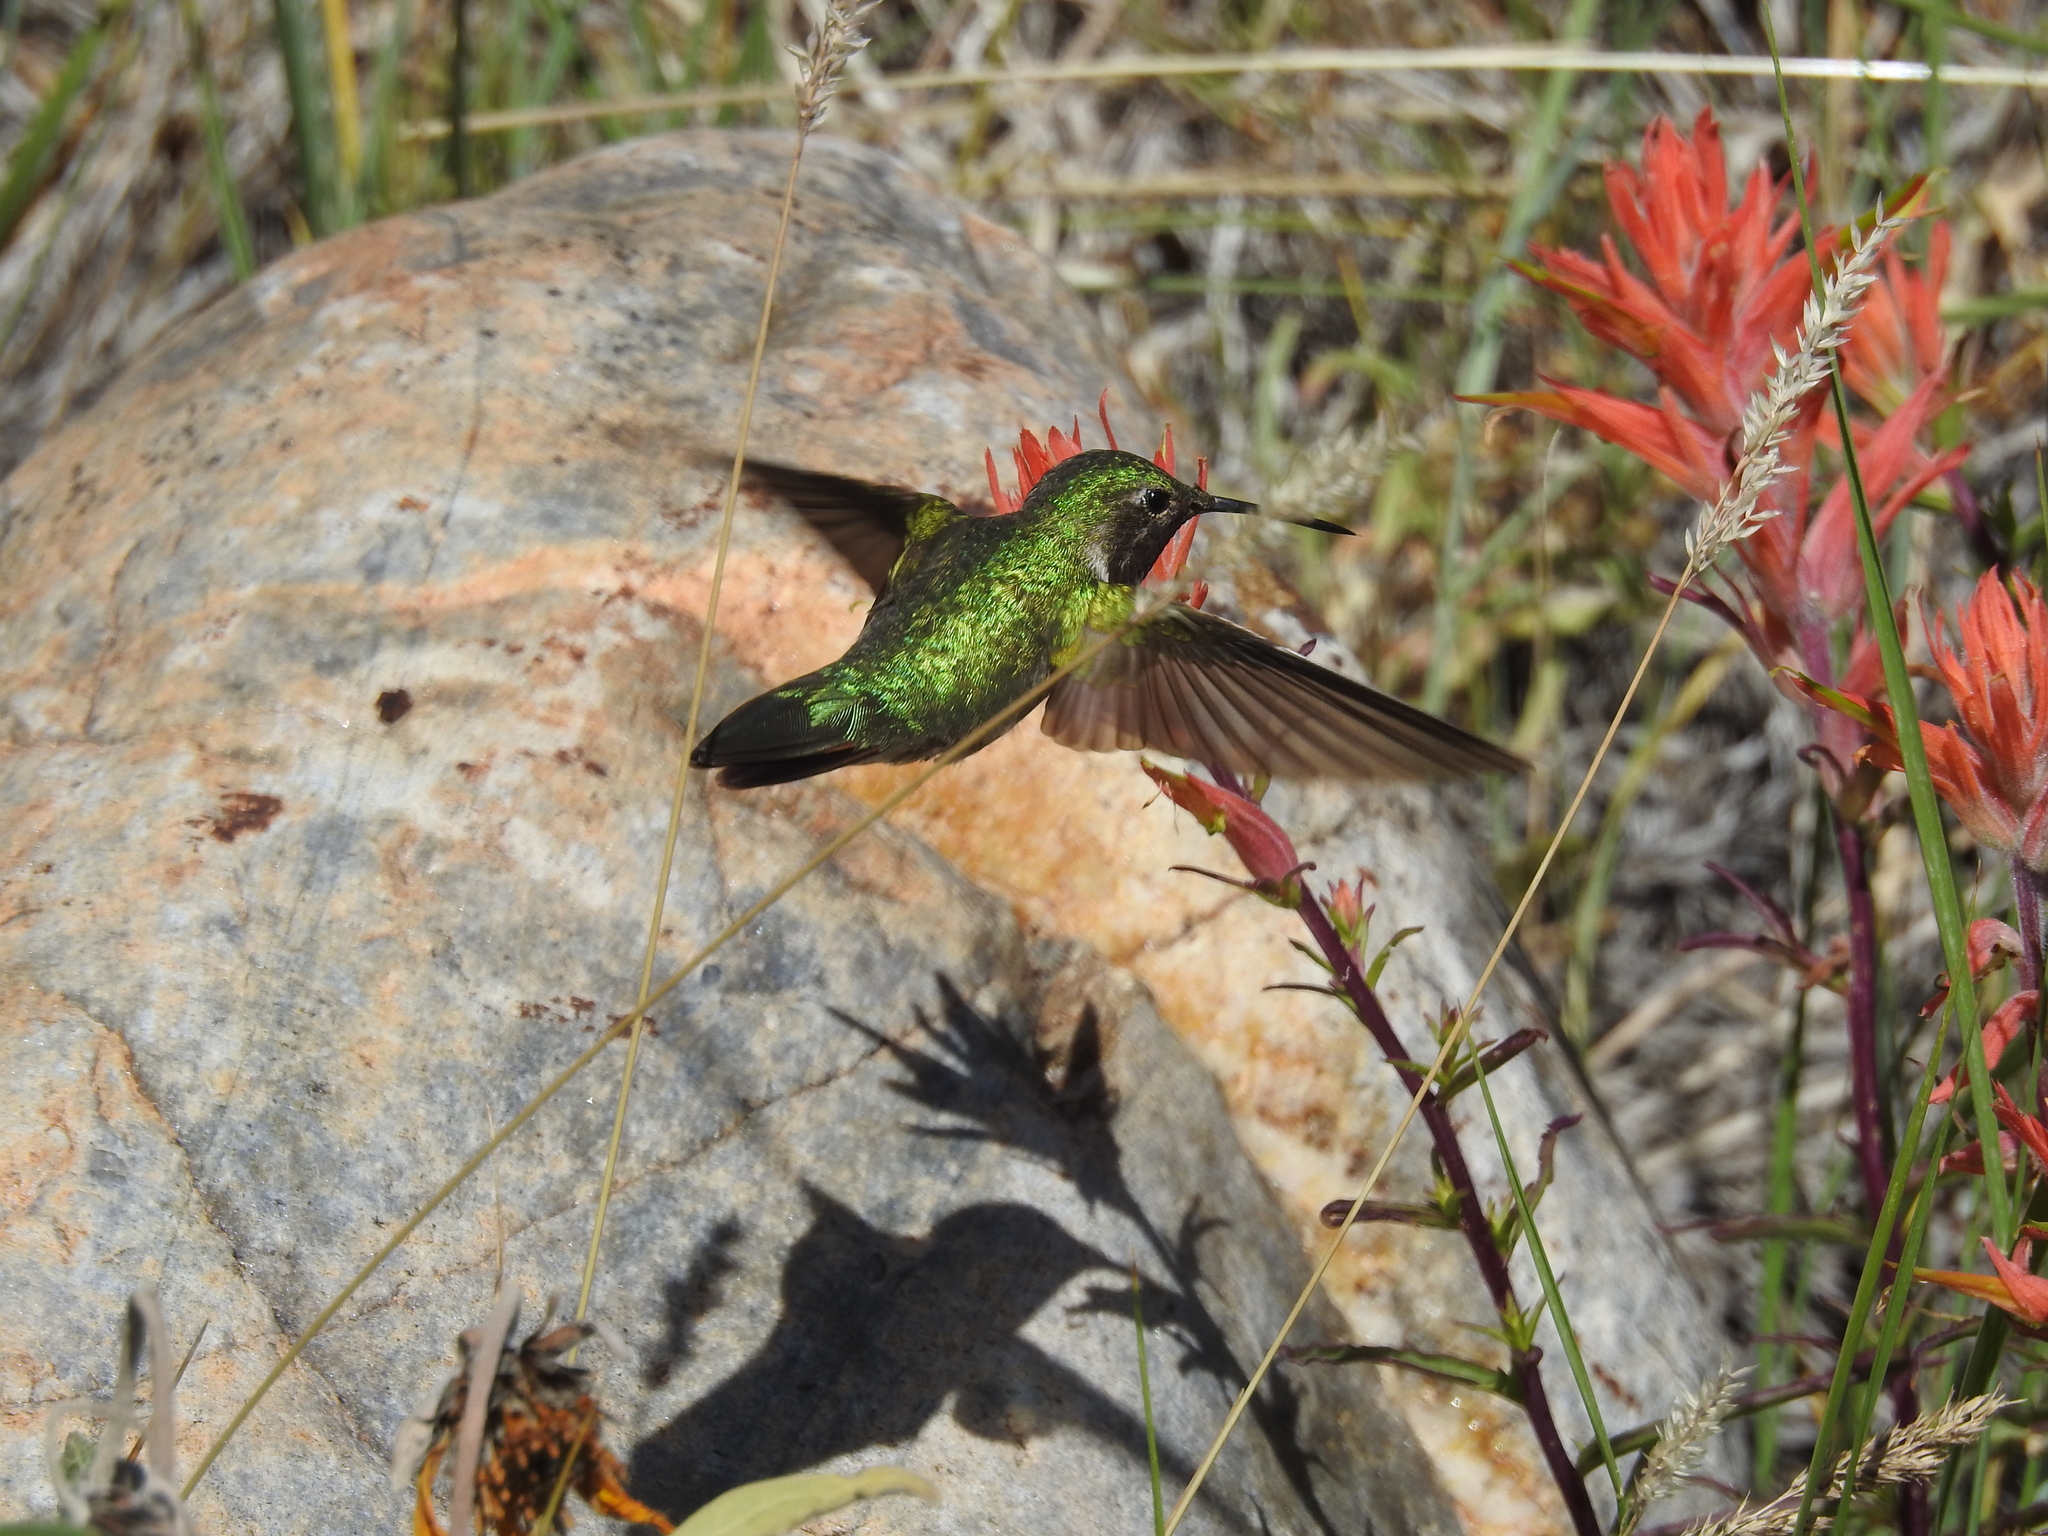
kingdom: Animalia
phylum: Chordata
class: Aves
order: Apodiformes
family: Trochilidae
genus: Selasphorus
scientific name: Selasphorus platycercus
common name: Broad-tailed hummingbird
